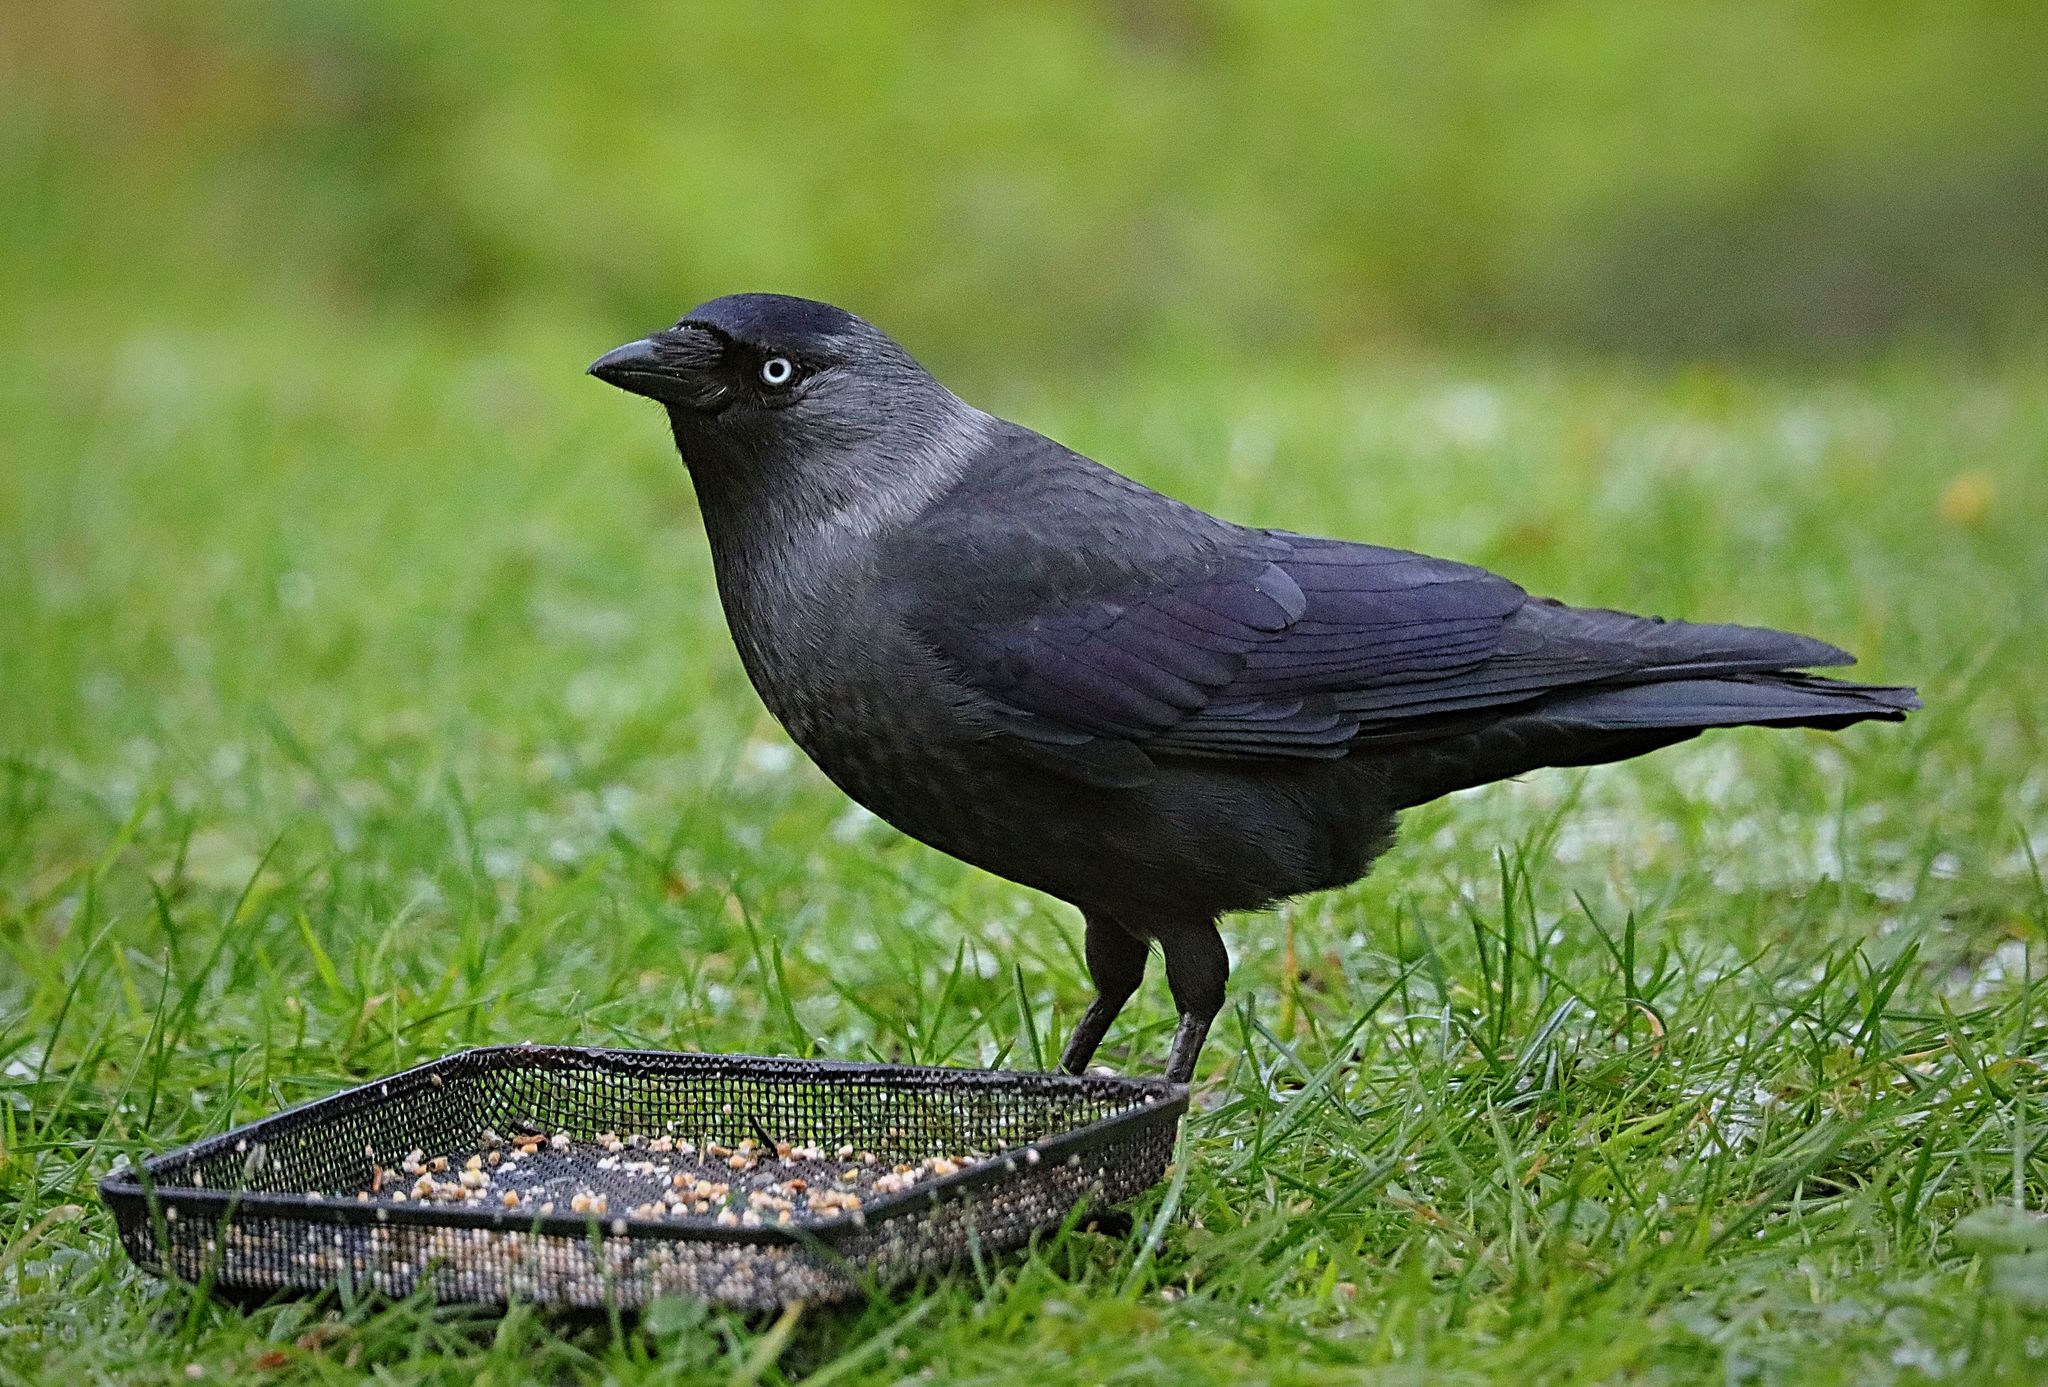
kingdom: Animalia
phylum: Chordata
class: Aves
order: Passeriformes
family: Corvidae
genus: Coloeus
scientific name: Coloeus monedula
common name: Western jackdaw
